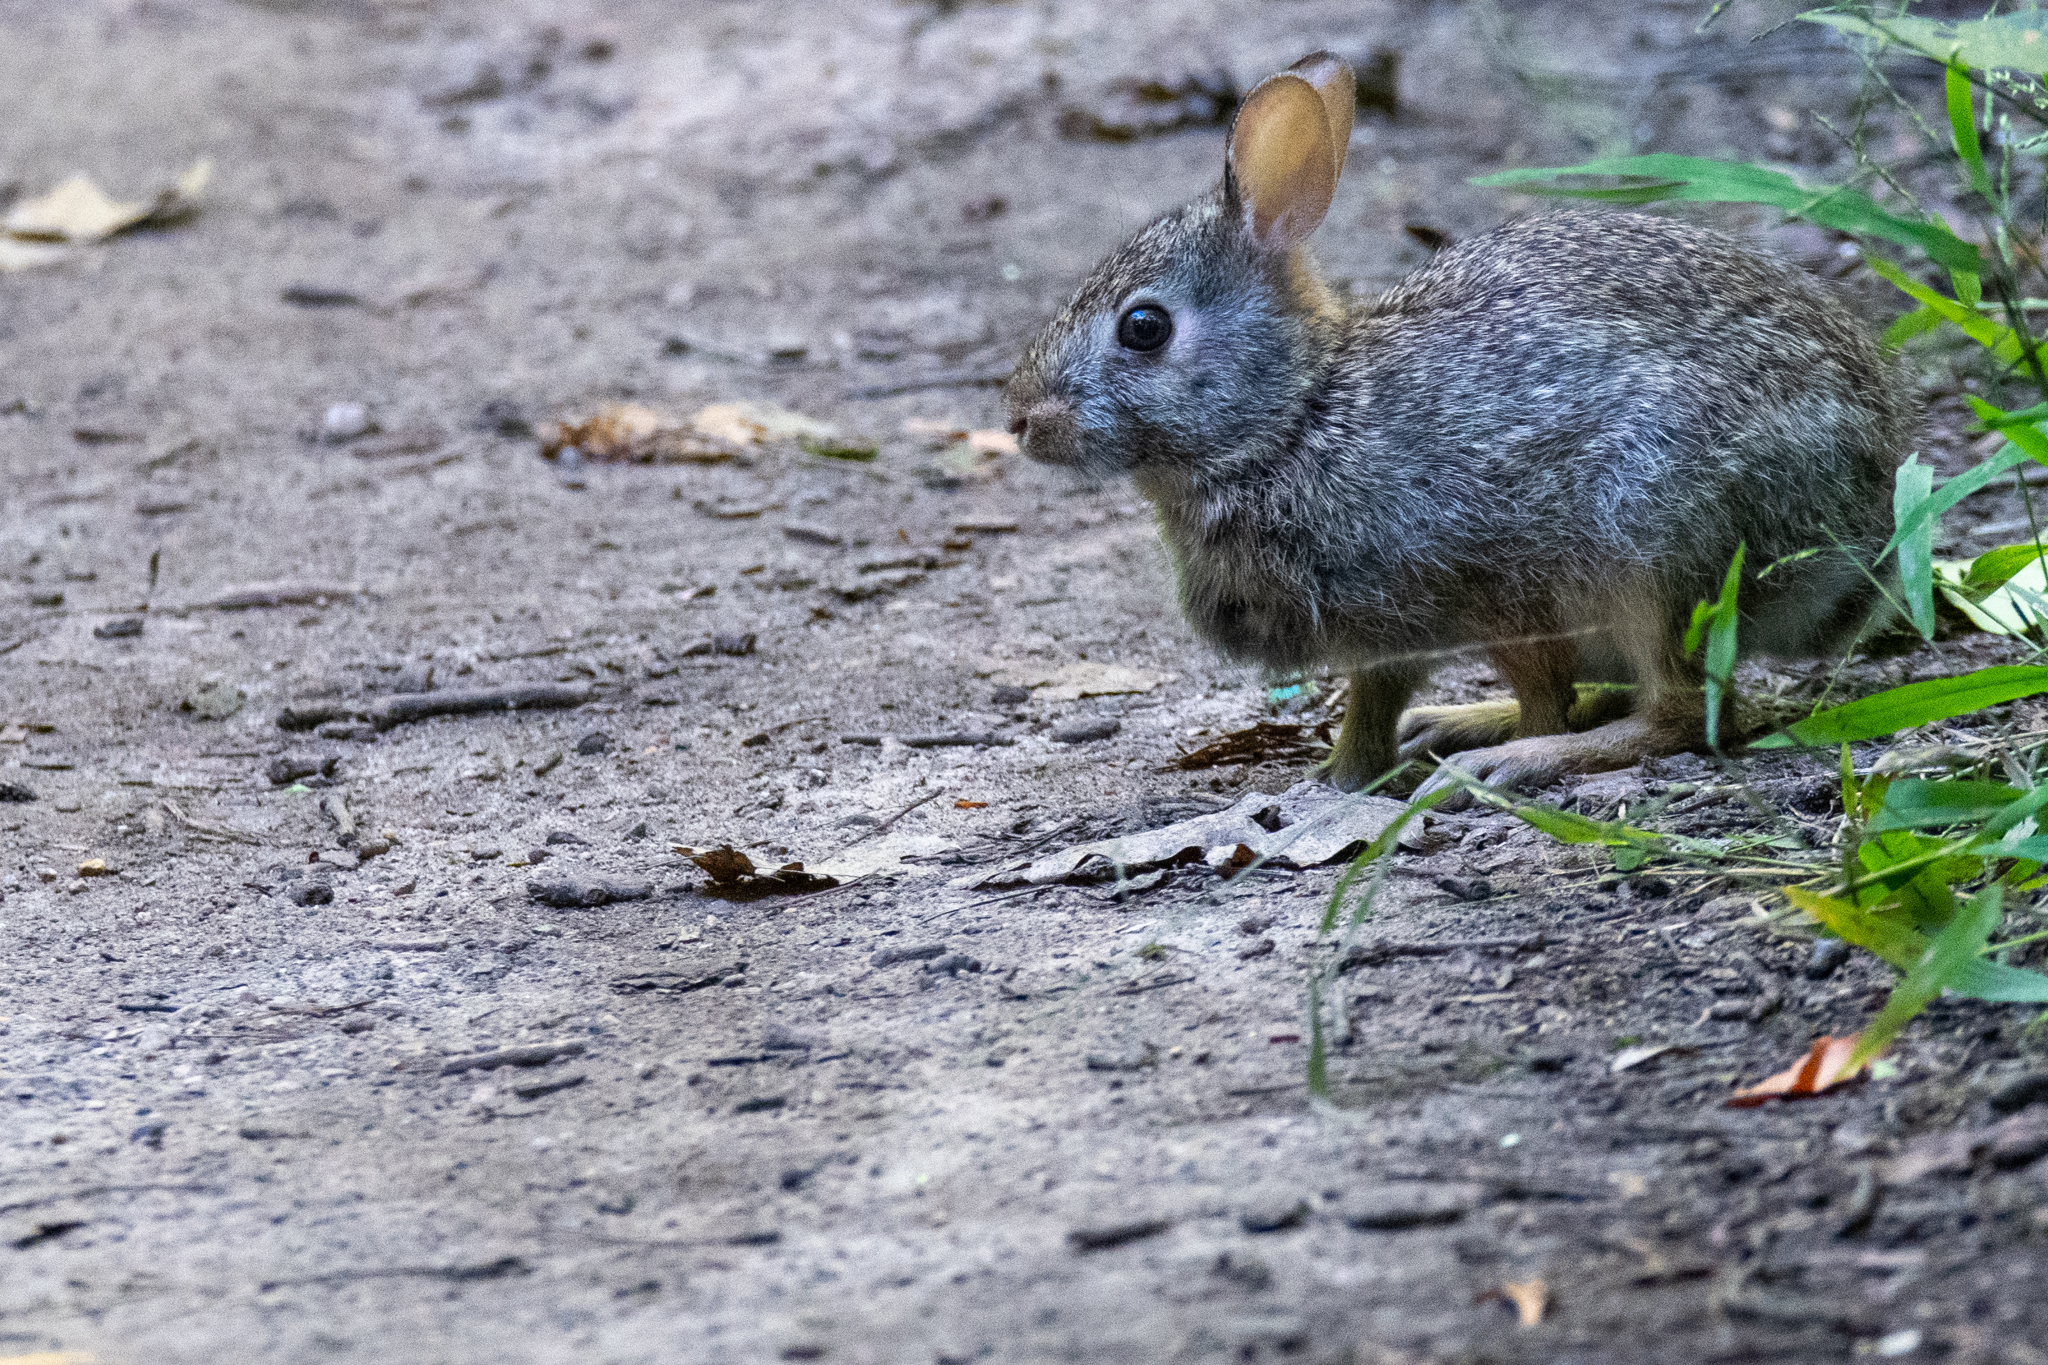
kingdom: Animalia
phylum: Chordata
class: Mammalia
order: Lagomorpha
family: Leporidae
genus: Sylvilagus
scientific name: Sylvilagus floridanus
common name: Eastern cottontail
